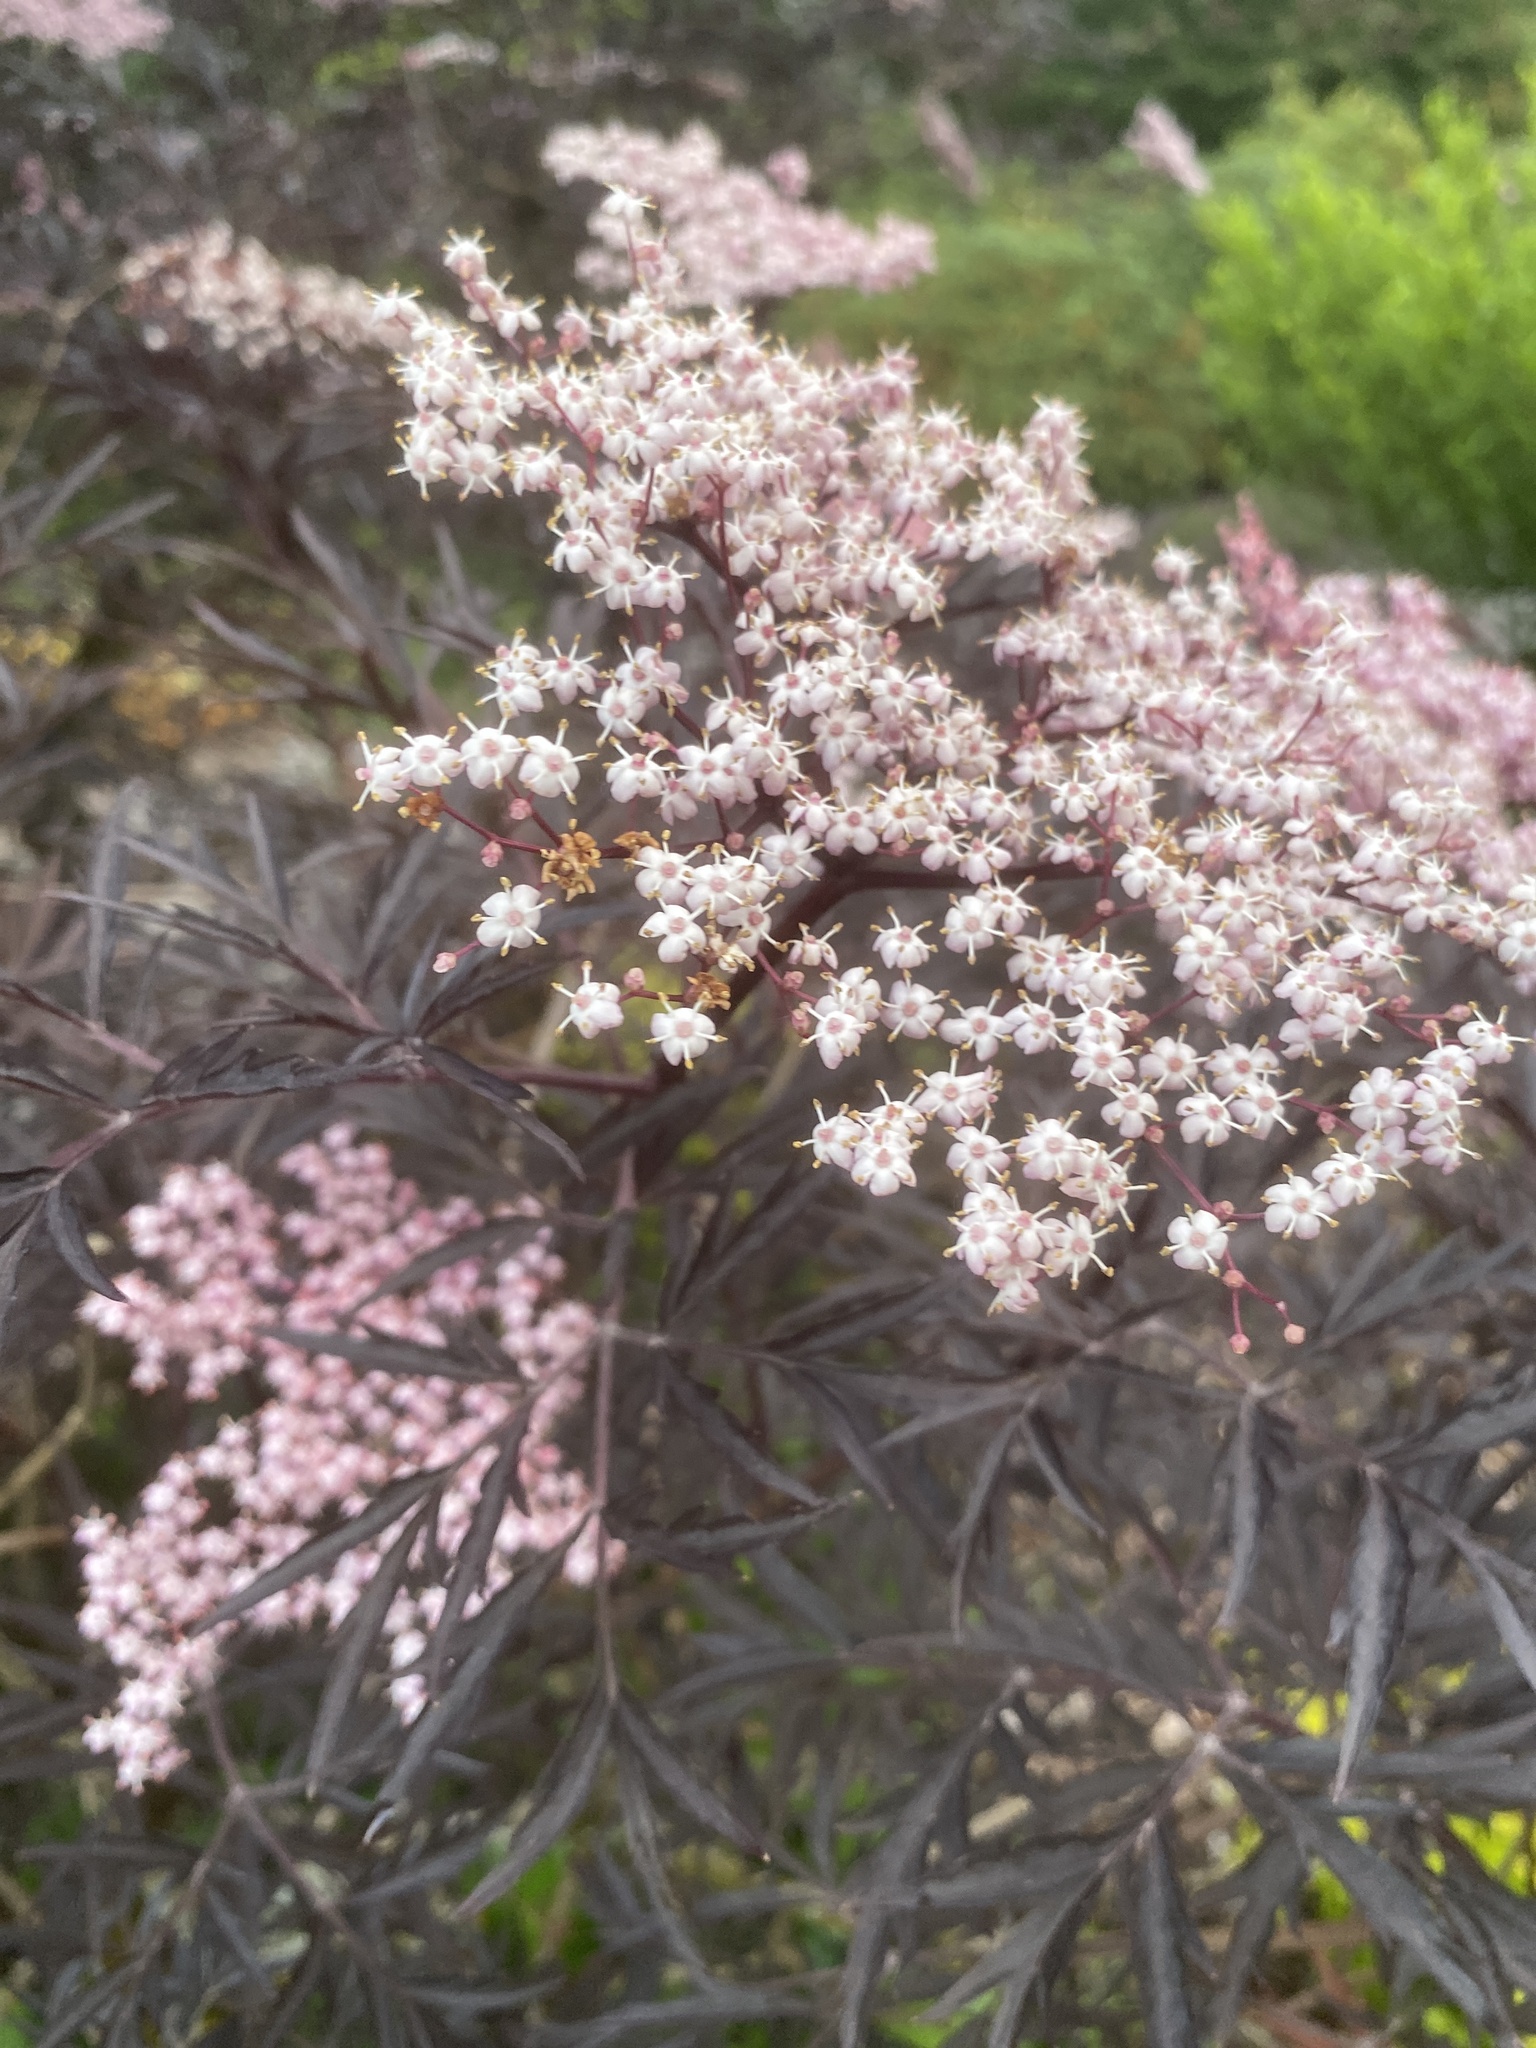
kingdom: Plantae
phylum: Tracheophyta
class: Magnoliopsida
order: Dipsacales
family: Viburnaceae
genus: Sambucus
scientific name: Sambucus nigra
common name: Elder
